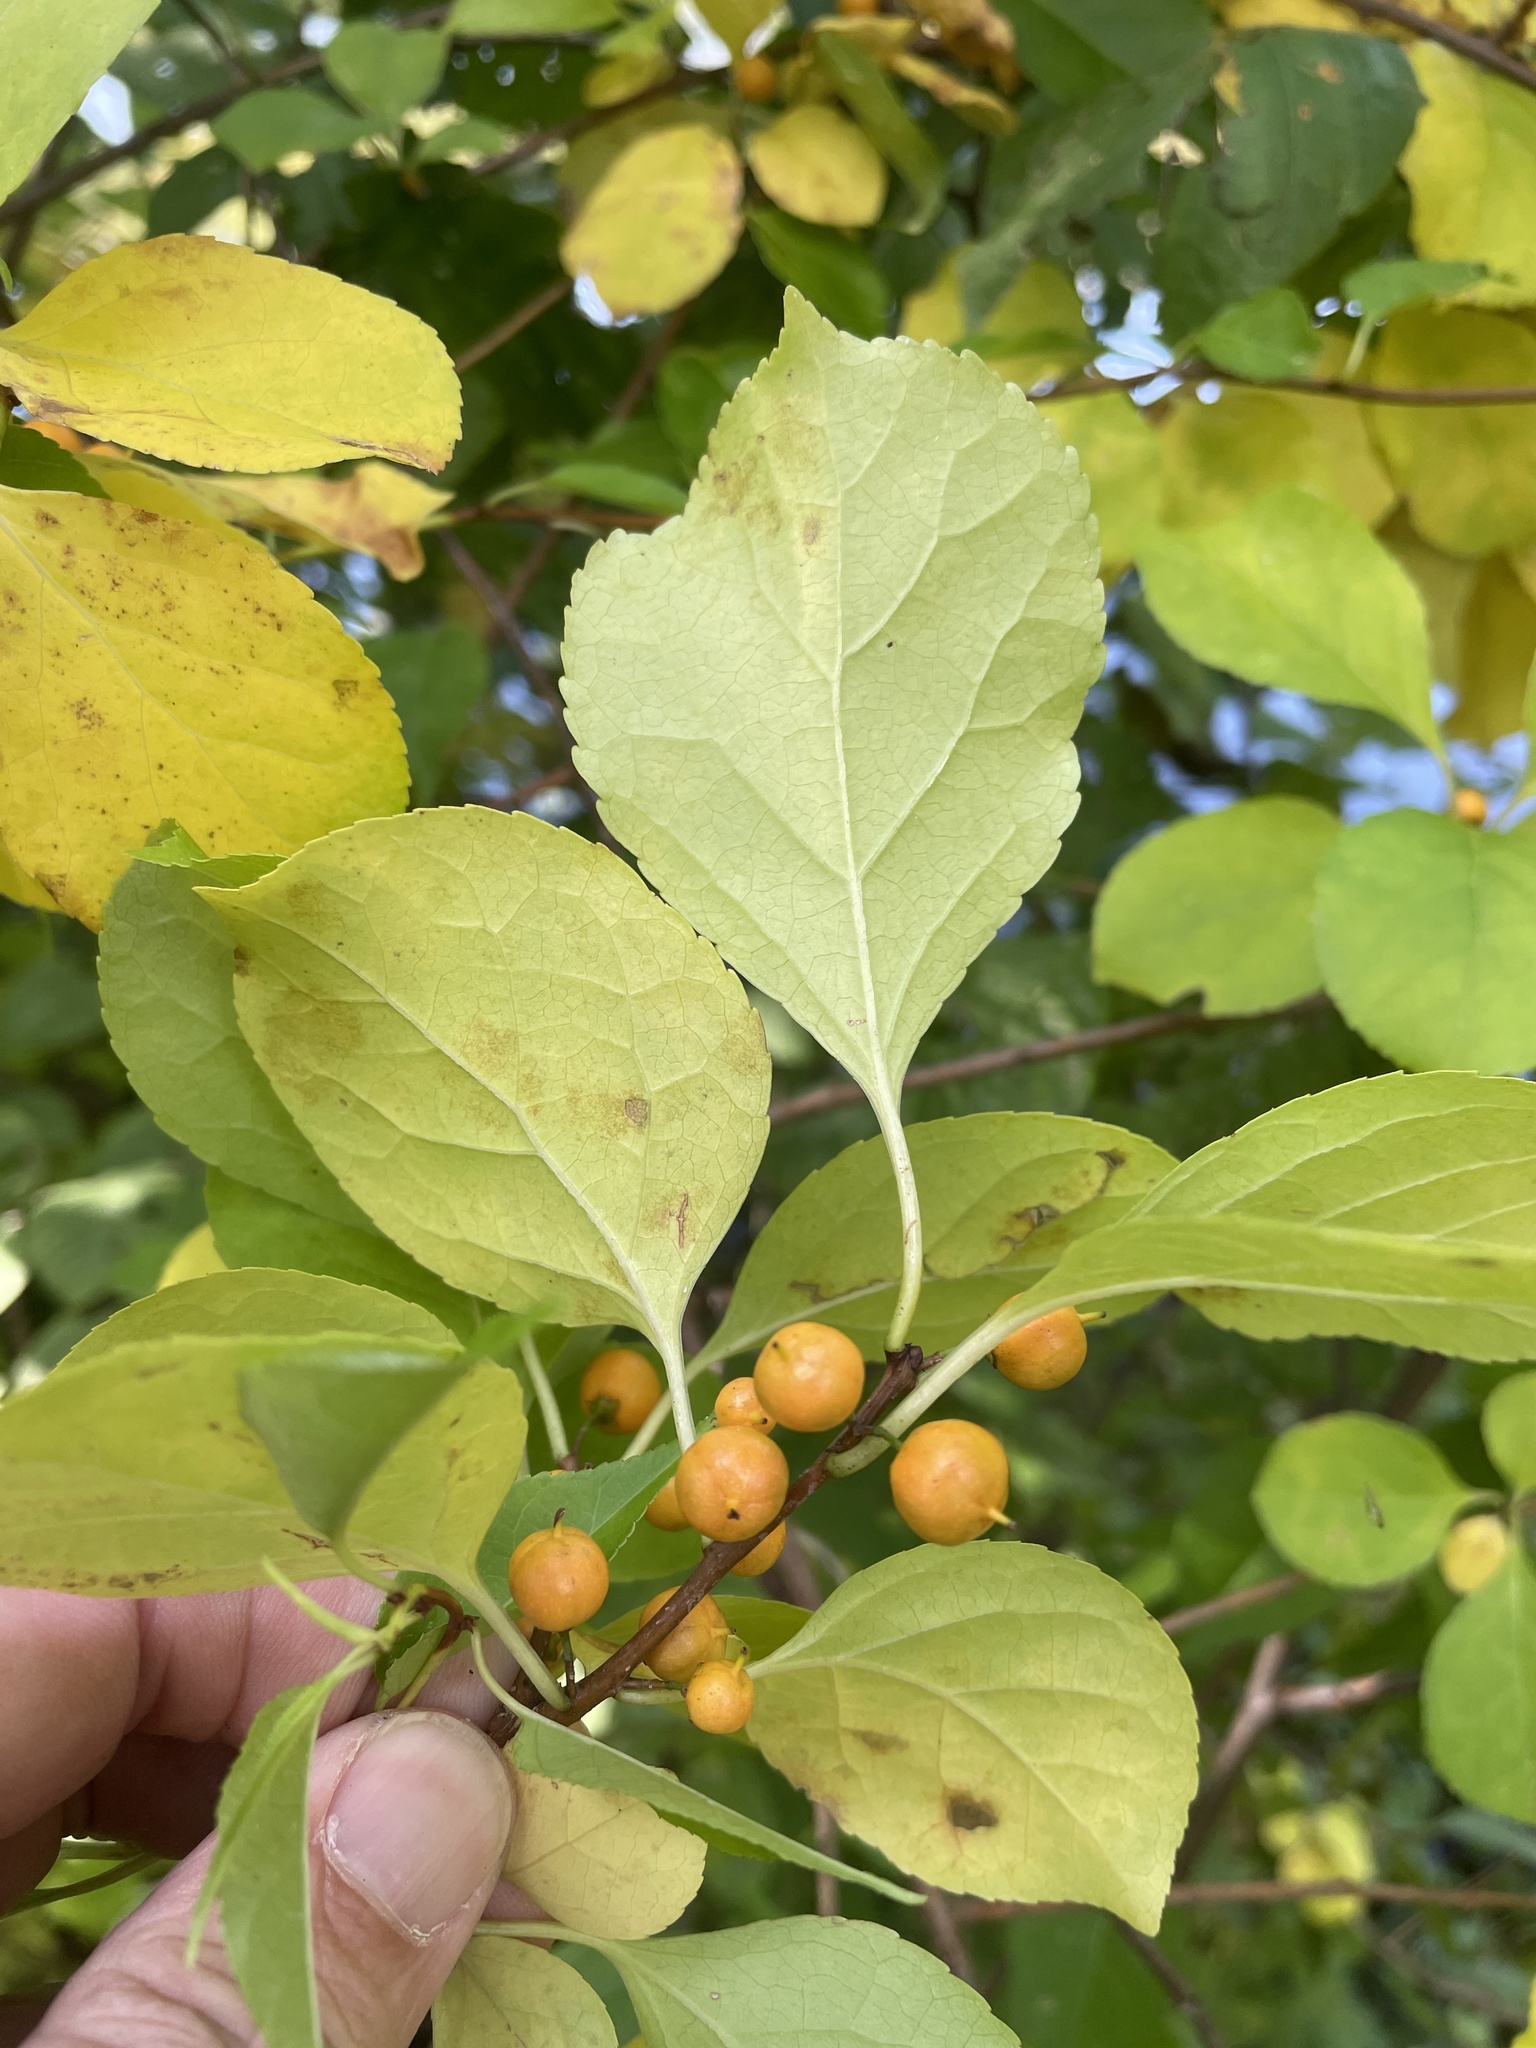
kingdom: Plantae
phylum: Tracheophyta
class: Magnoliopsida
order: Celastrales
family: Celastraceae
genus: Celastrus
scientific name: Celastrus orbiculatus
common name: Oriental bittersweet
